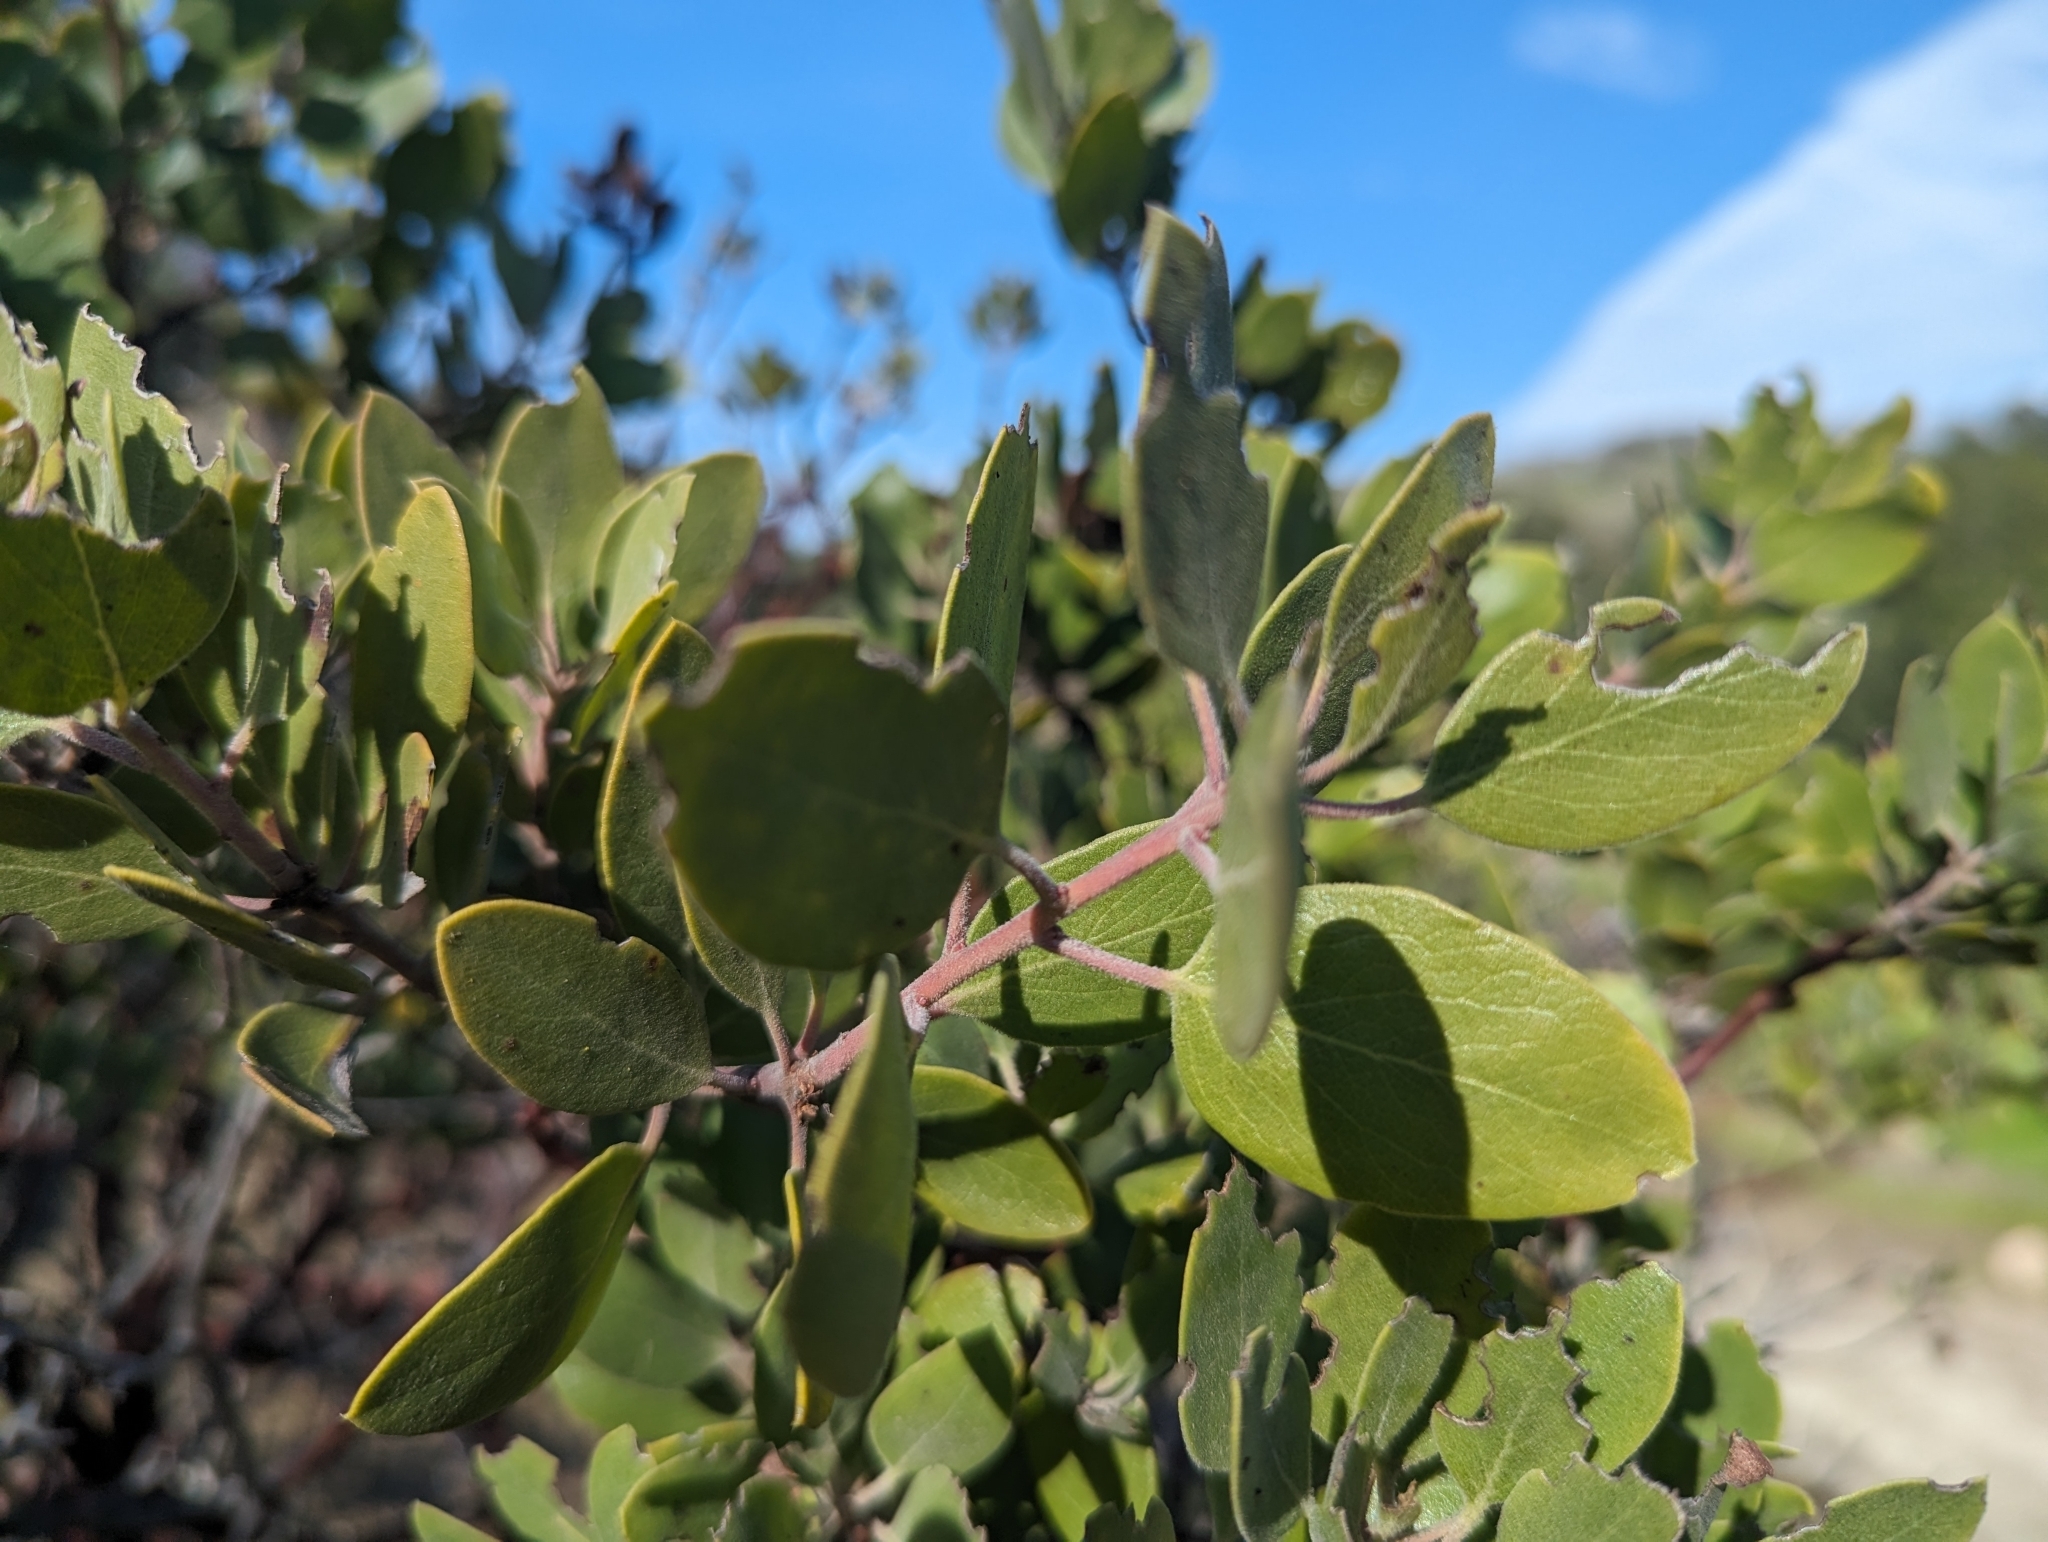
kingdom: Plantae
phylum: Tracheophyta
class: Magnoliopsida
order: Ericales
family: Ericaceae
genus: Arctostaphylos
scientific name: Arctostaphylos manzanita
